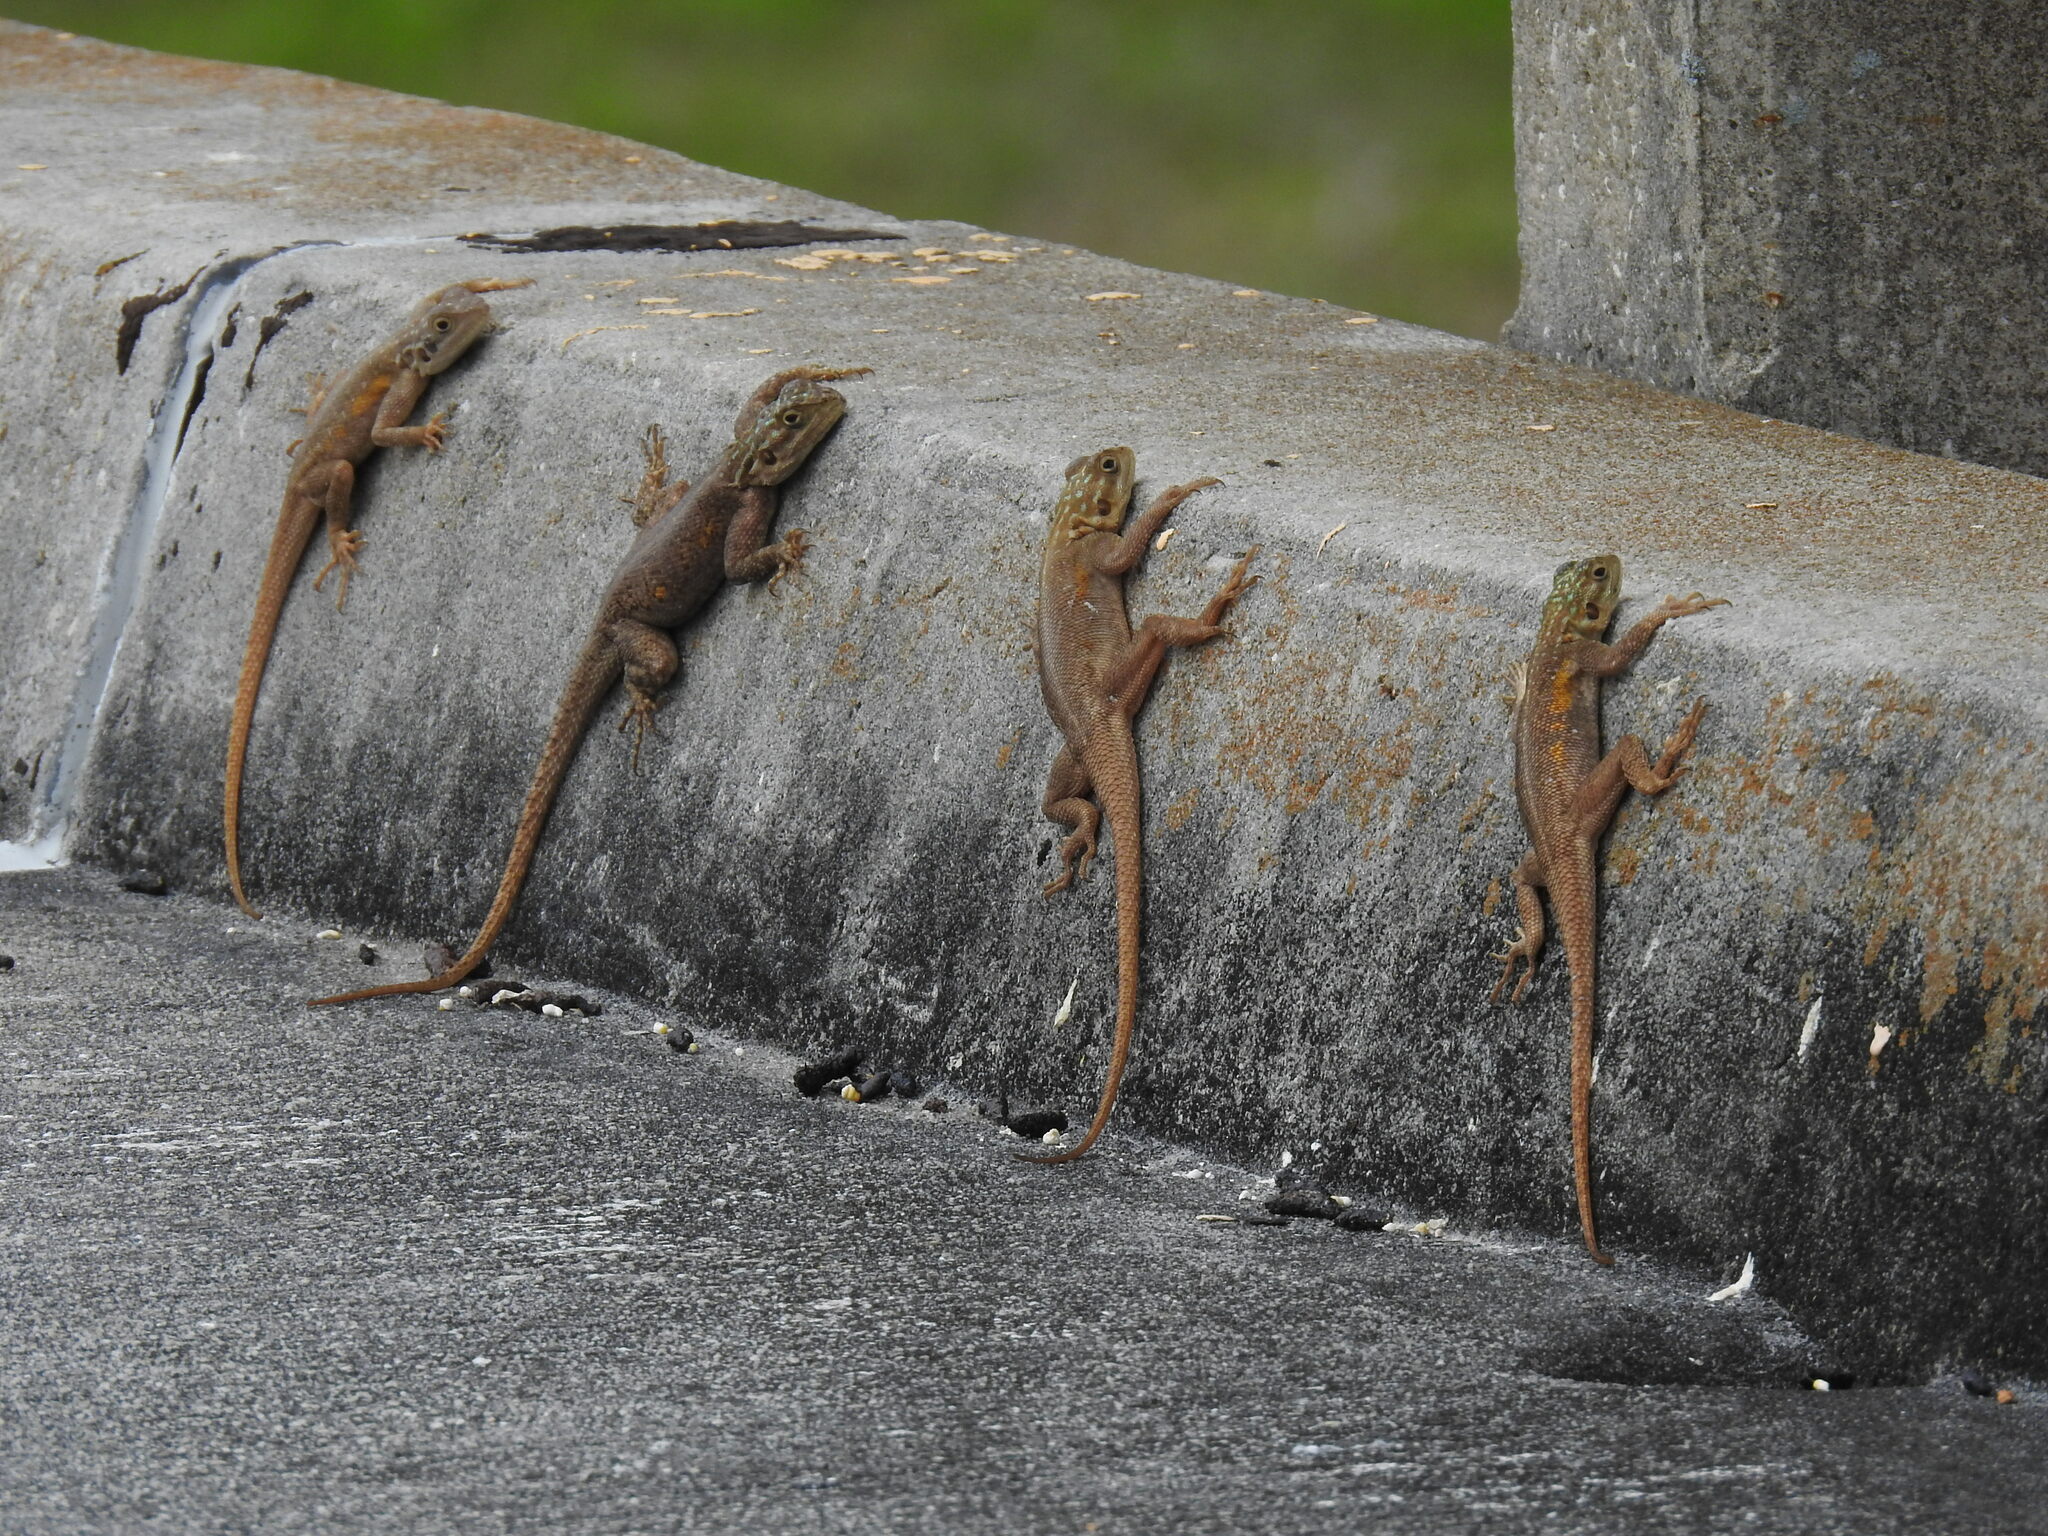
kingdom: Animalia
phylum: Chordata
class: Squamata
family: Agamidae
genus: Agama
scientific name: Agama picticauda
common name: Red-headed agama
